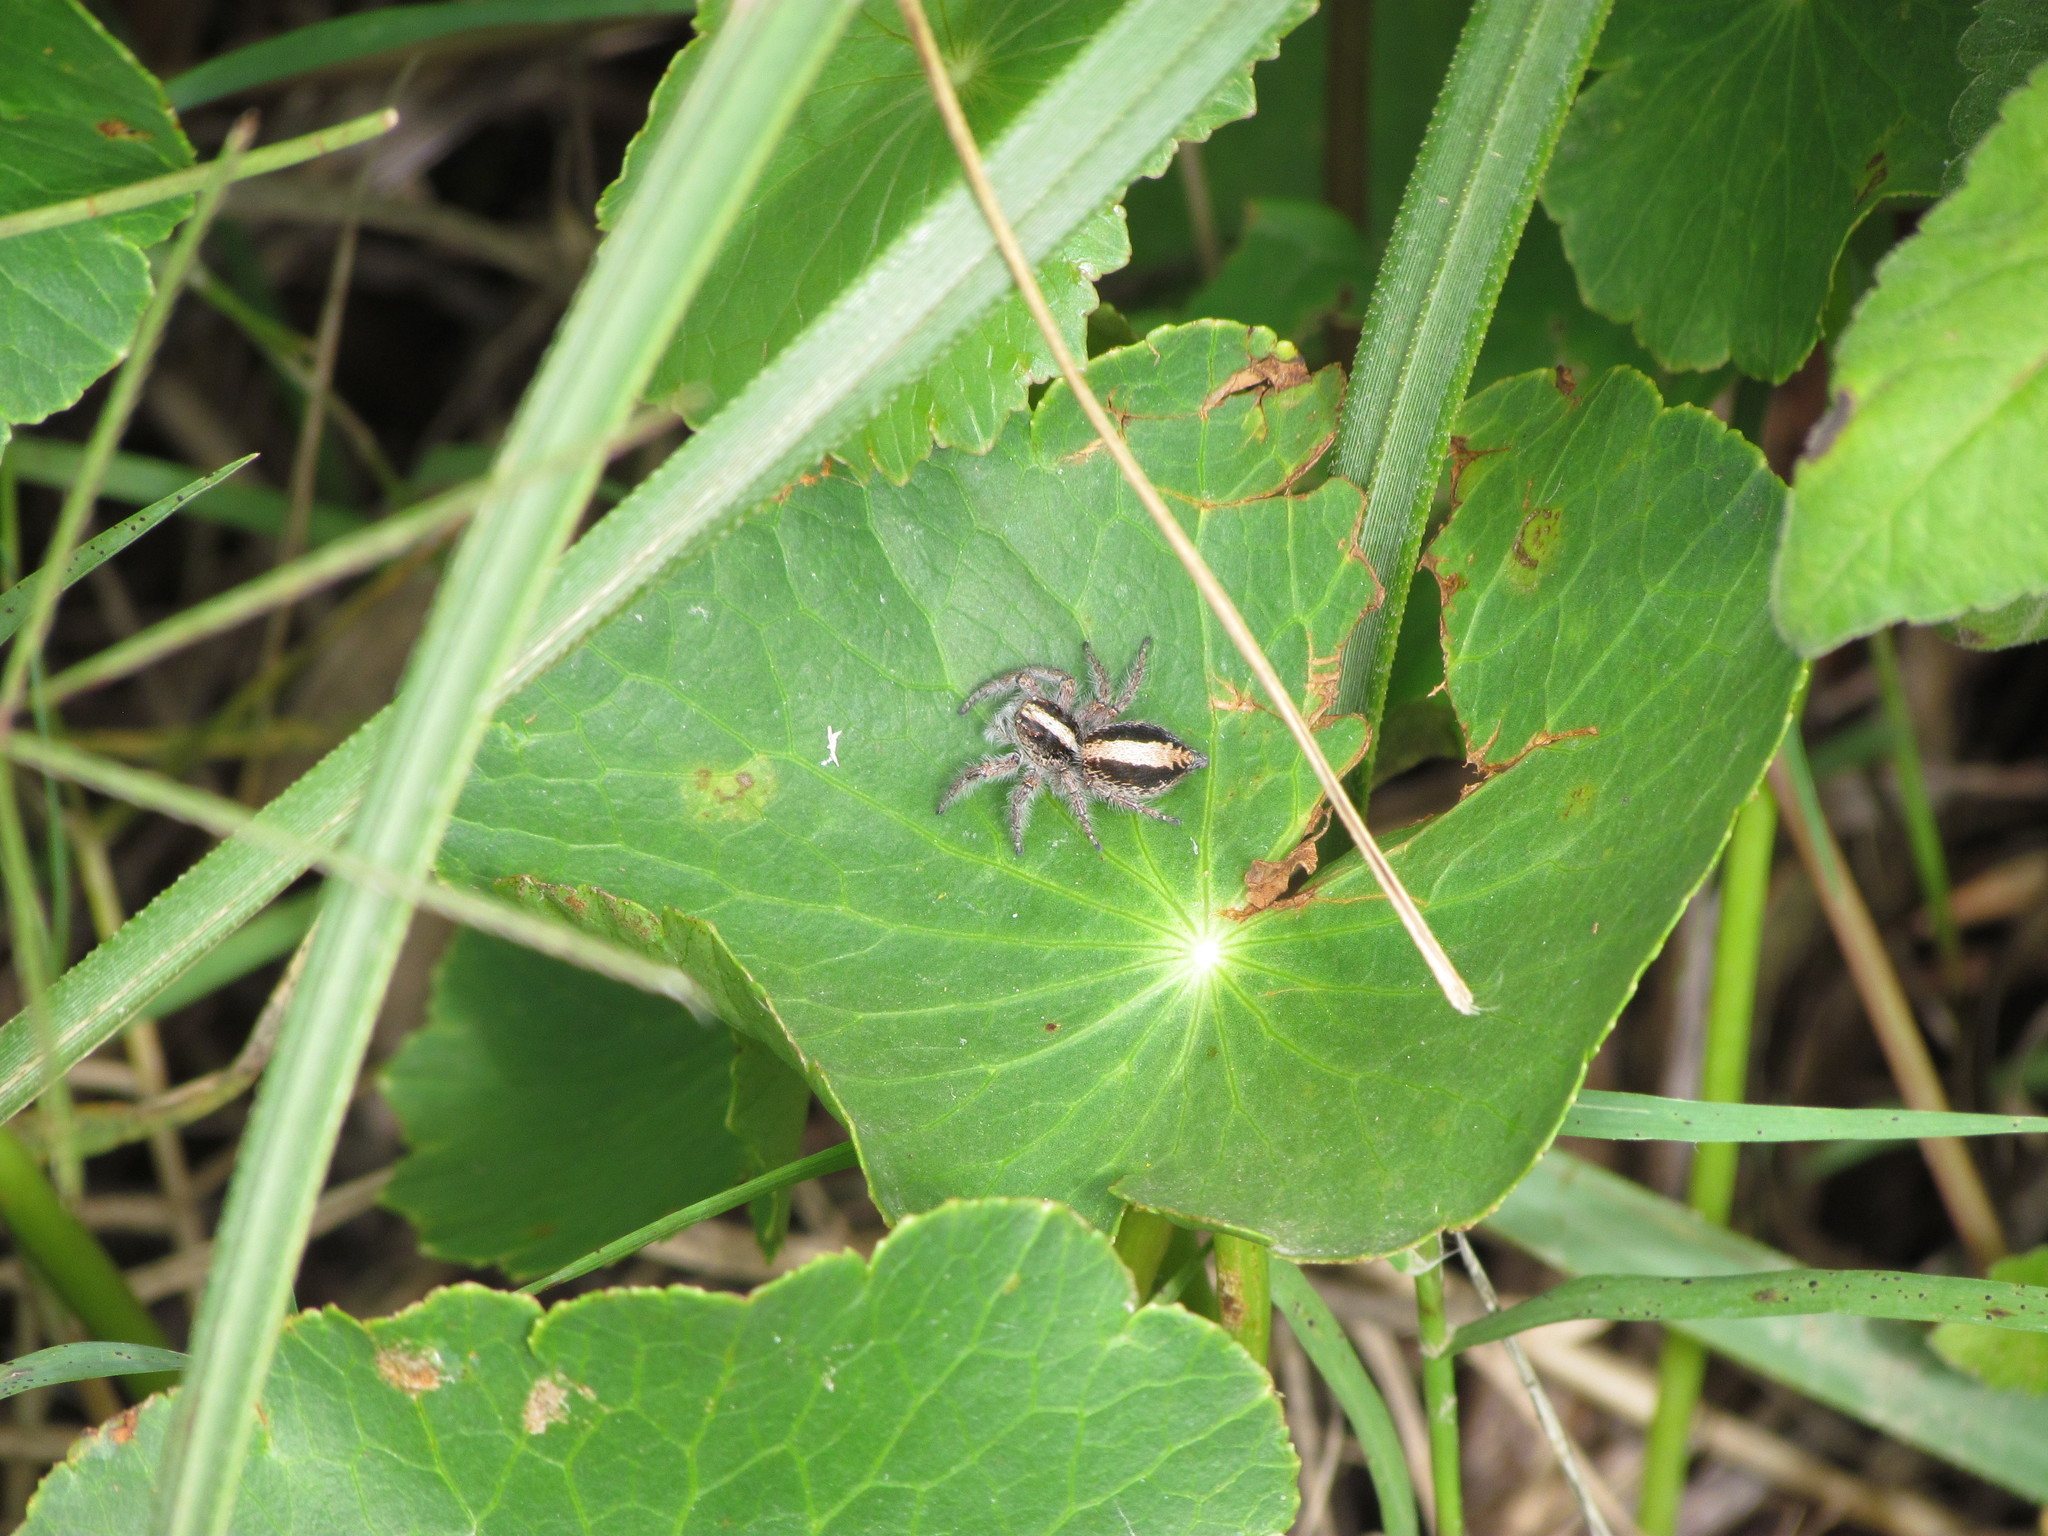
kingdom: Animalia
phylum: Arthropoda
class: Arachnida
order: Araneae
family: Salticidae
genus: Megafreya
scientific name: Megafreya sutrix
